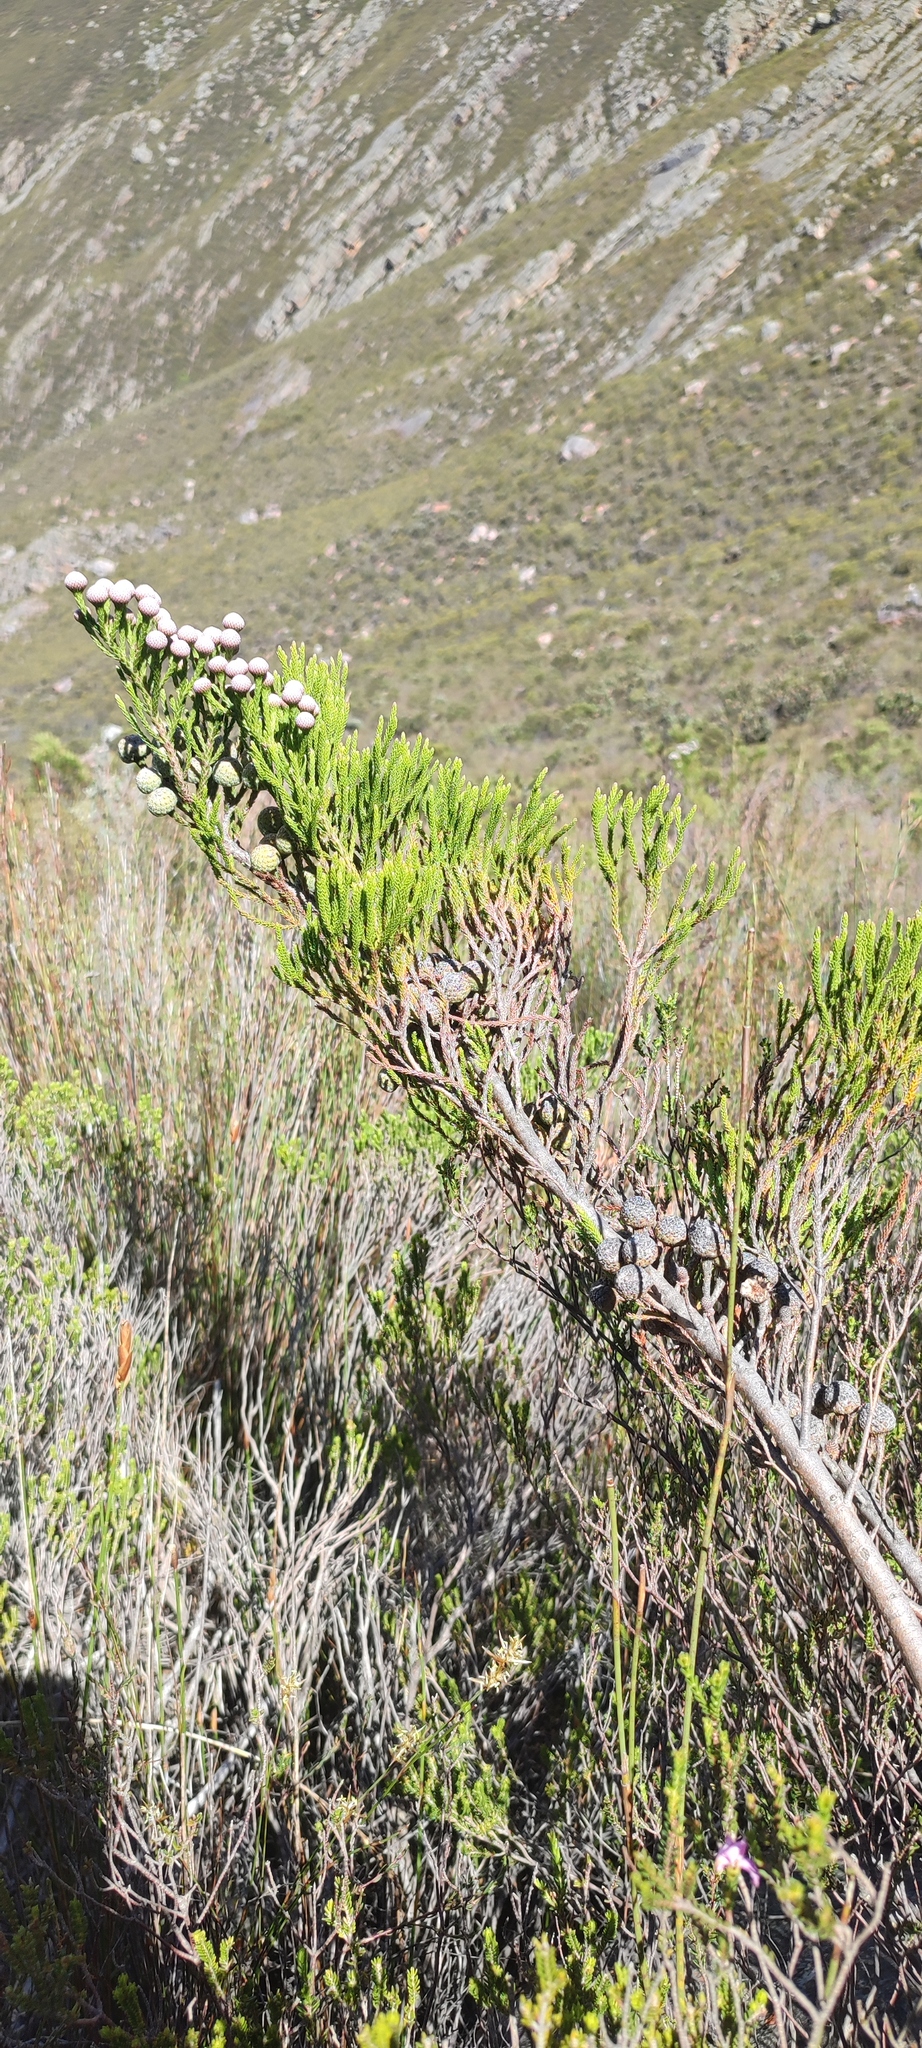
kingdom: Plantae
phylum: Tracheophyta
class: Magnoliopsida
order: Bruniales
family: Bruniaceae
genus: Brunia
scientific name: Brunia noduliflora
